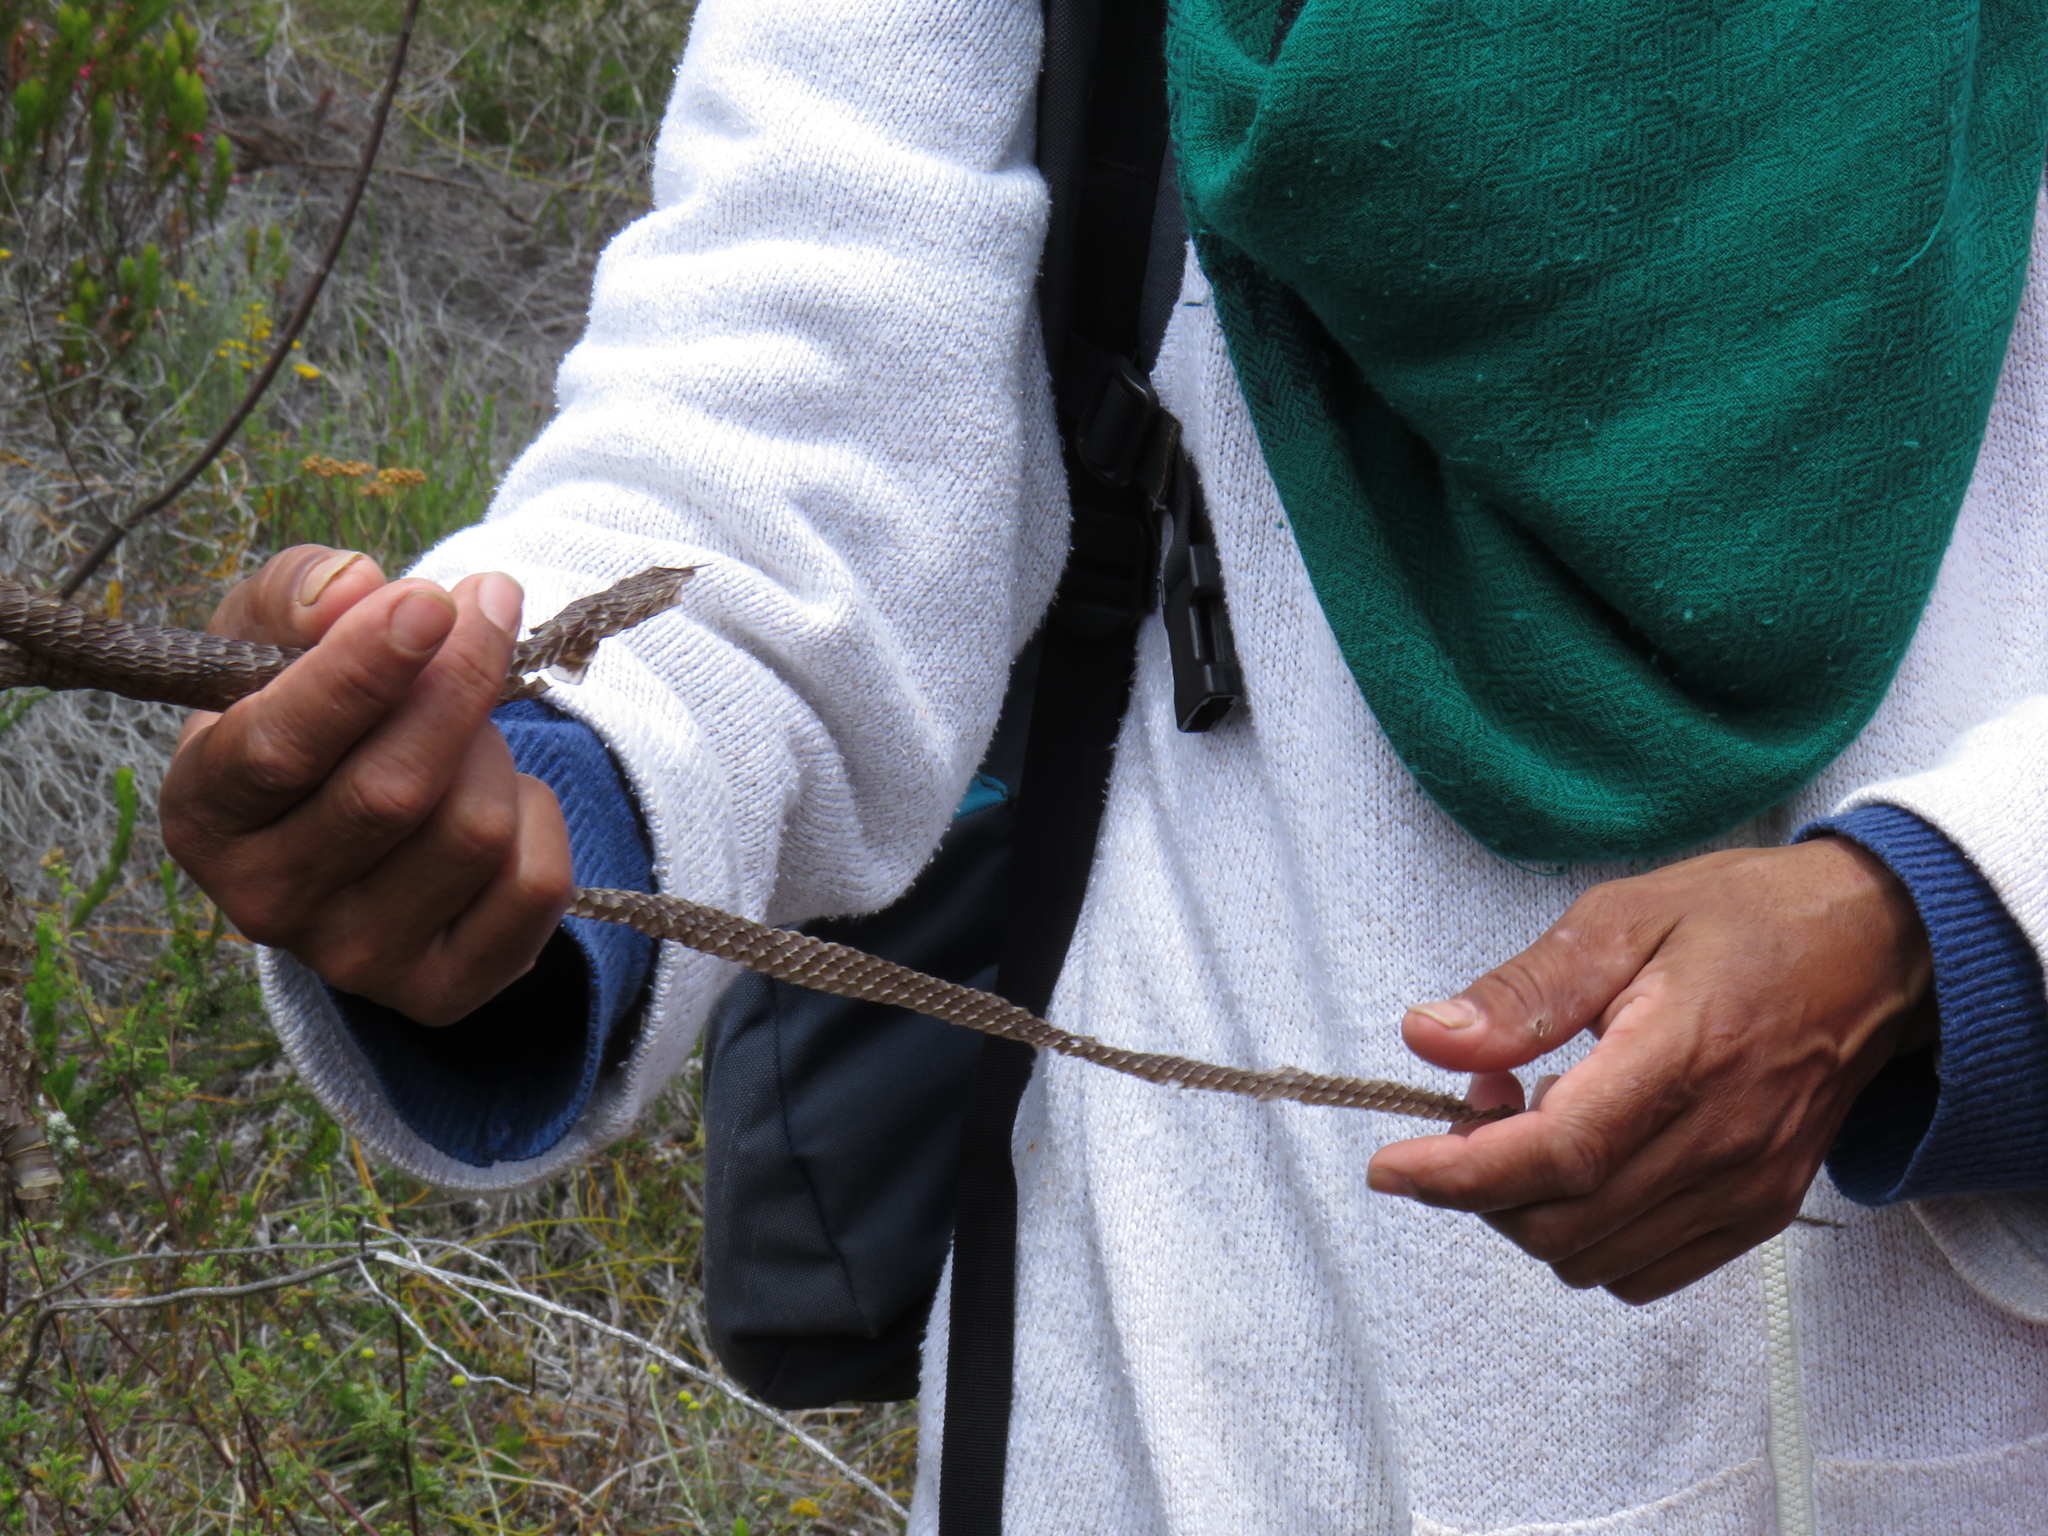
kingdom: Animalia
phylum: Chordata
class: Squamata
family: Colubridae
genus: Dispholidus
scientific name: Dispholidus typus
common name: Boomslang
